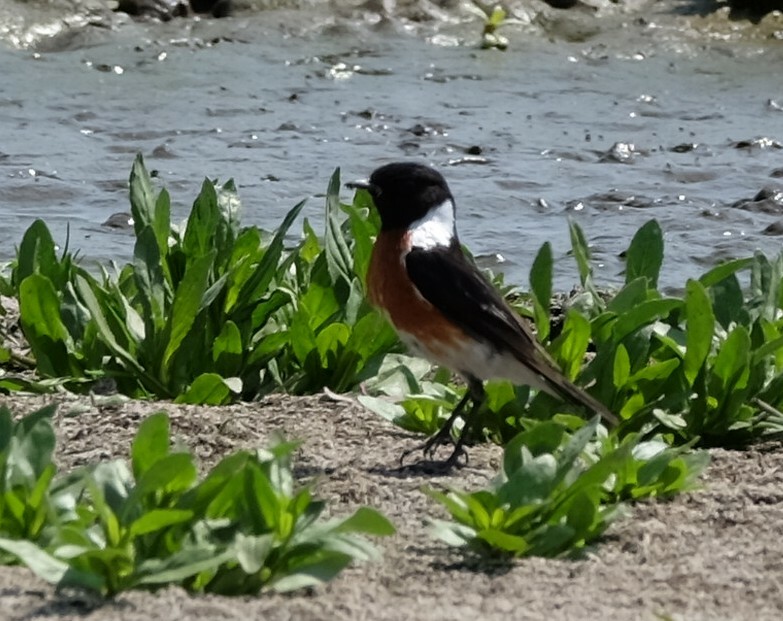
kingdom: Animalia
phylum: Chordata
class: Aves
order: Passeriformes
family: Muscicapidae
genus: Saxicola
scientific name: Saxicola torquatus
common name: African stonechat
